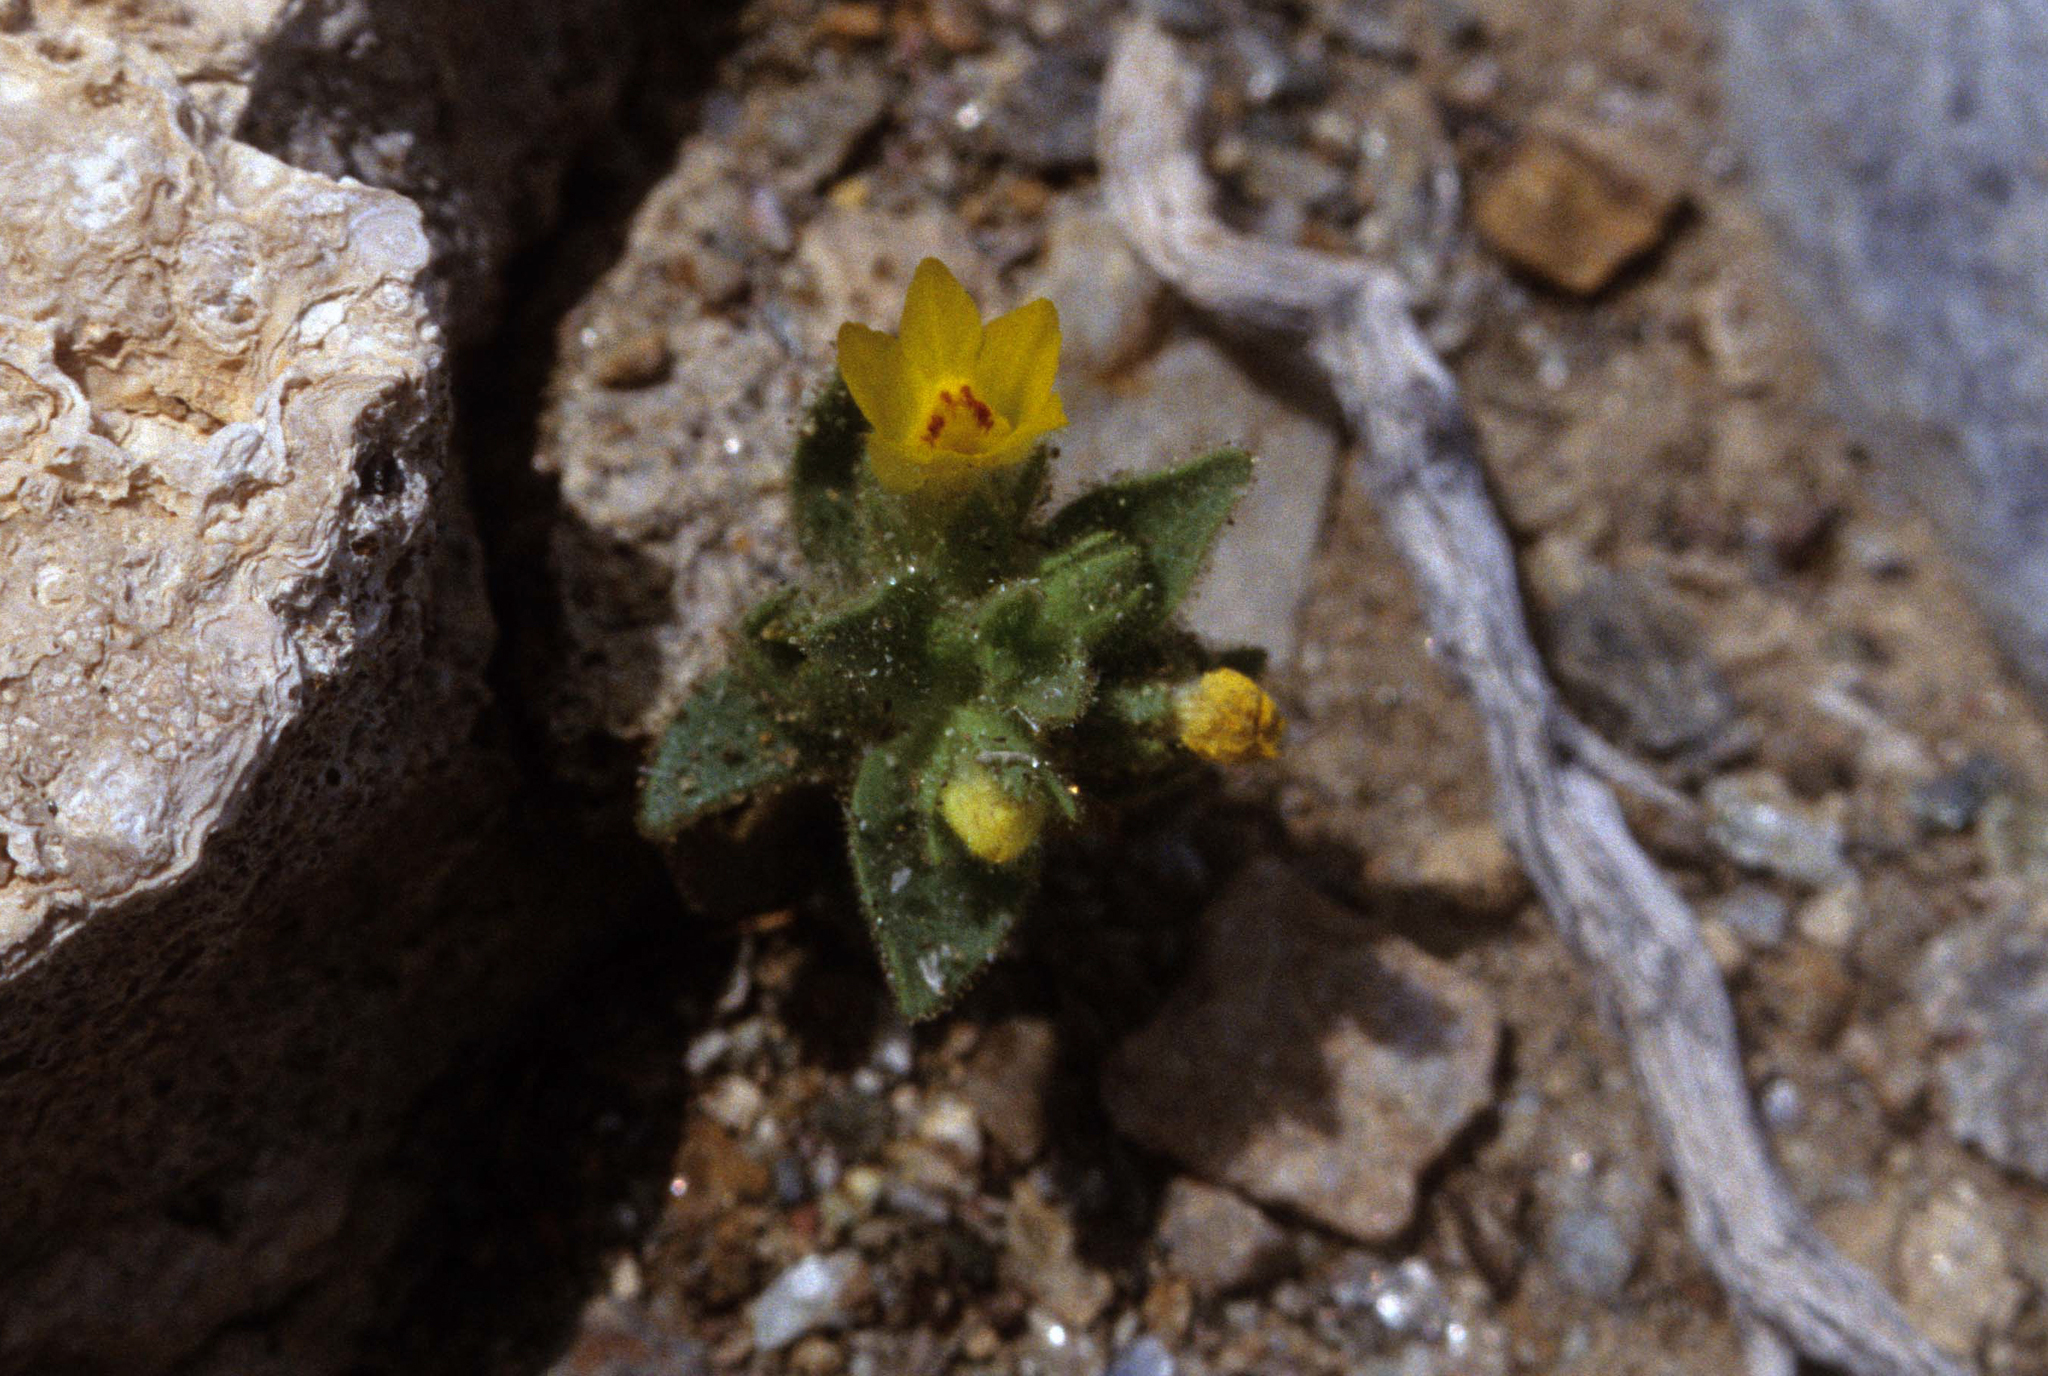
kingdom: Plantae
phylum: Tracheophyta
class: Magnoliopsida
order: Lamiales
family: Plantaginaceae
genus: Mohavea
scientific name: Mohavea breviflora
